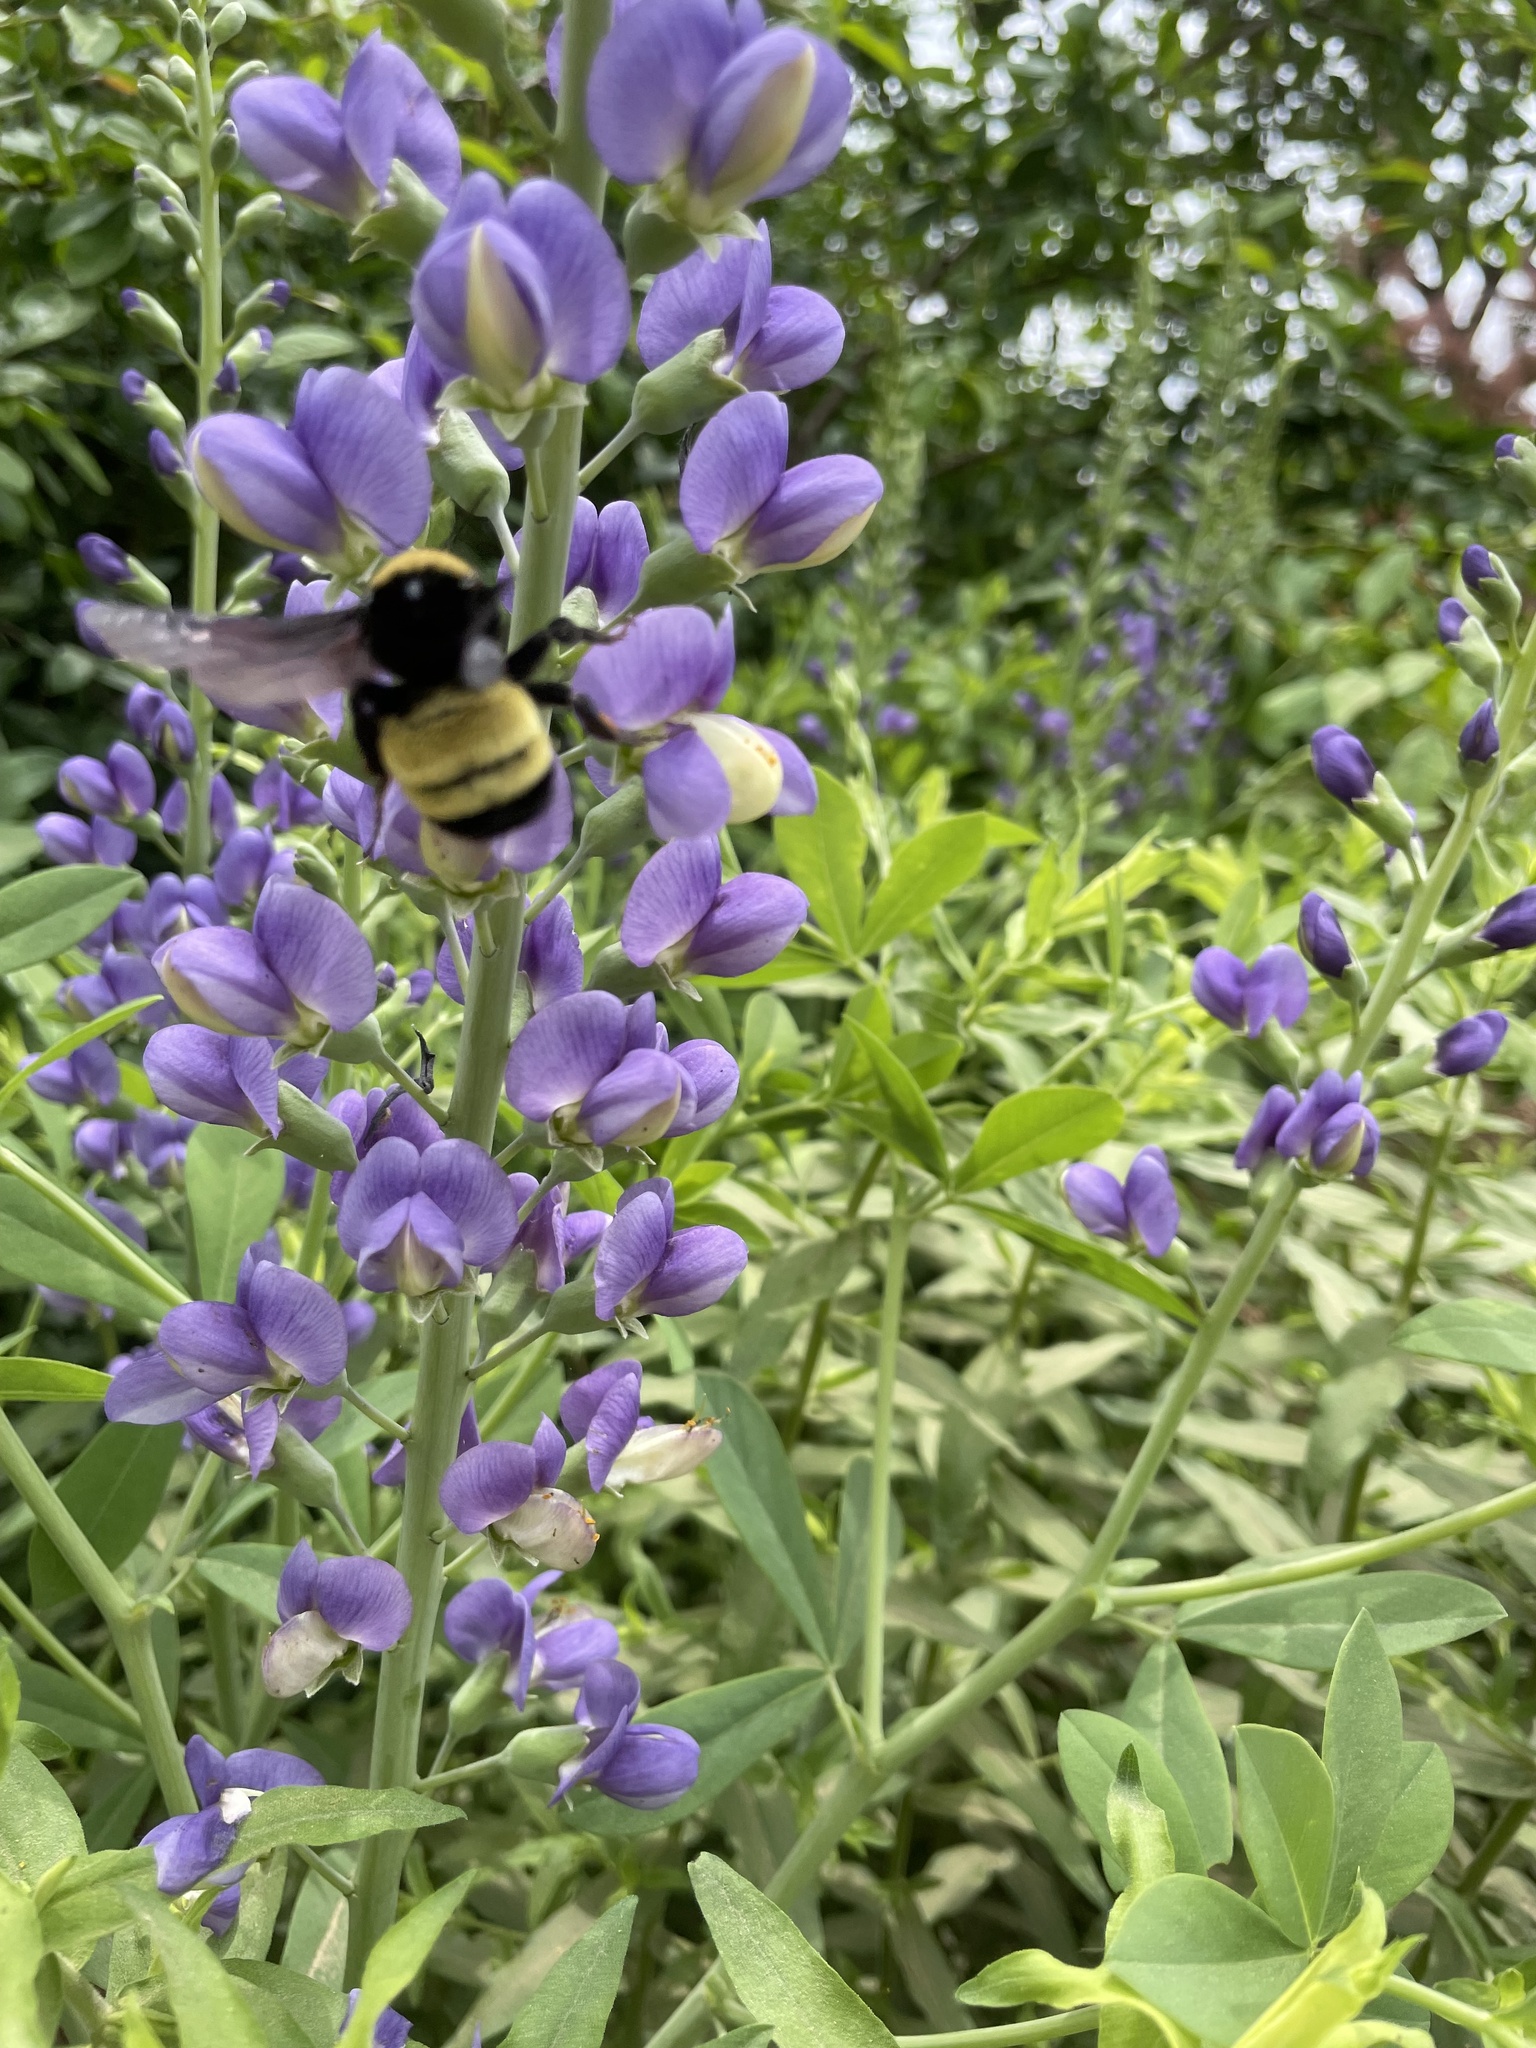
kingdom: Animalia
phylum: Arthropoda
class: Insecta
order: Hymenoptera
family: Apidae
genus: Bombus
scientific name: Bombus pensylvanicus
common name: Bumble bee
